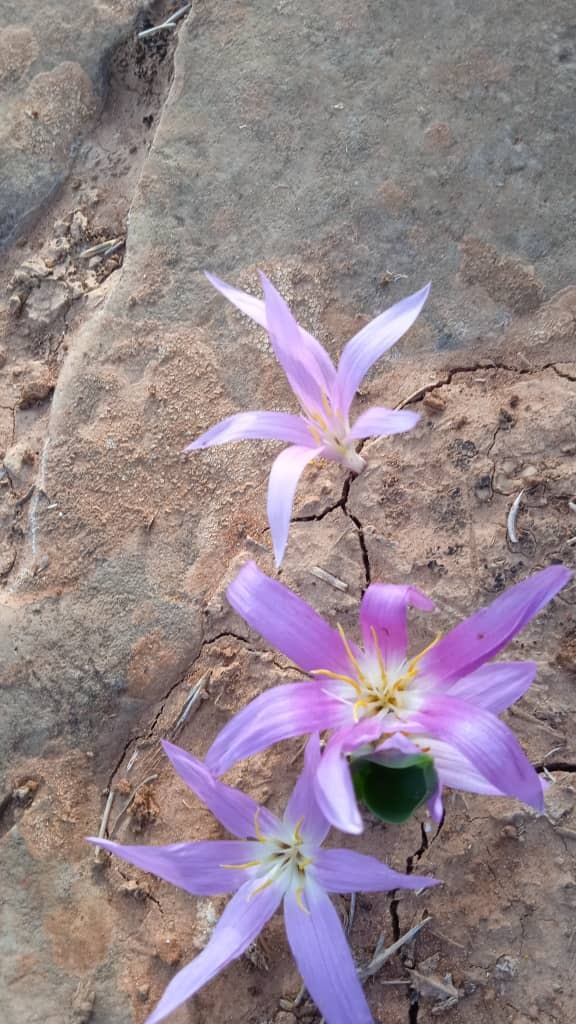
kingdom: Plantae
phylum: Tracheophyta
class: Liliopsida
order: Liliales
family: Colchicaceae
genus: Colchicum
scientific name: Colchicum filifolium
